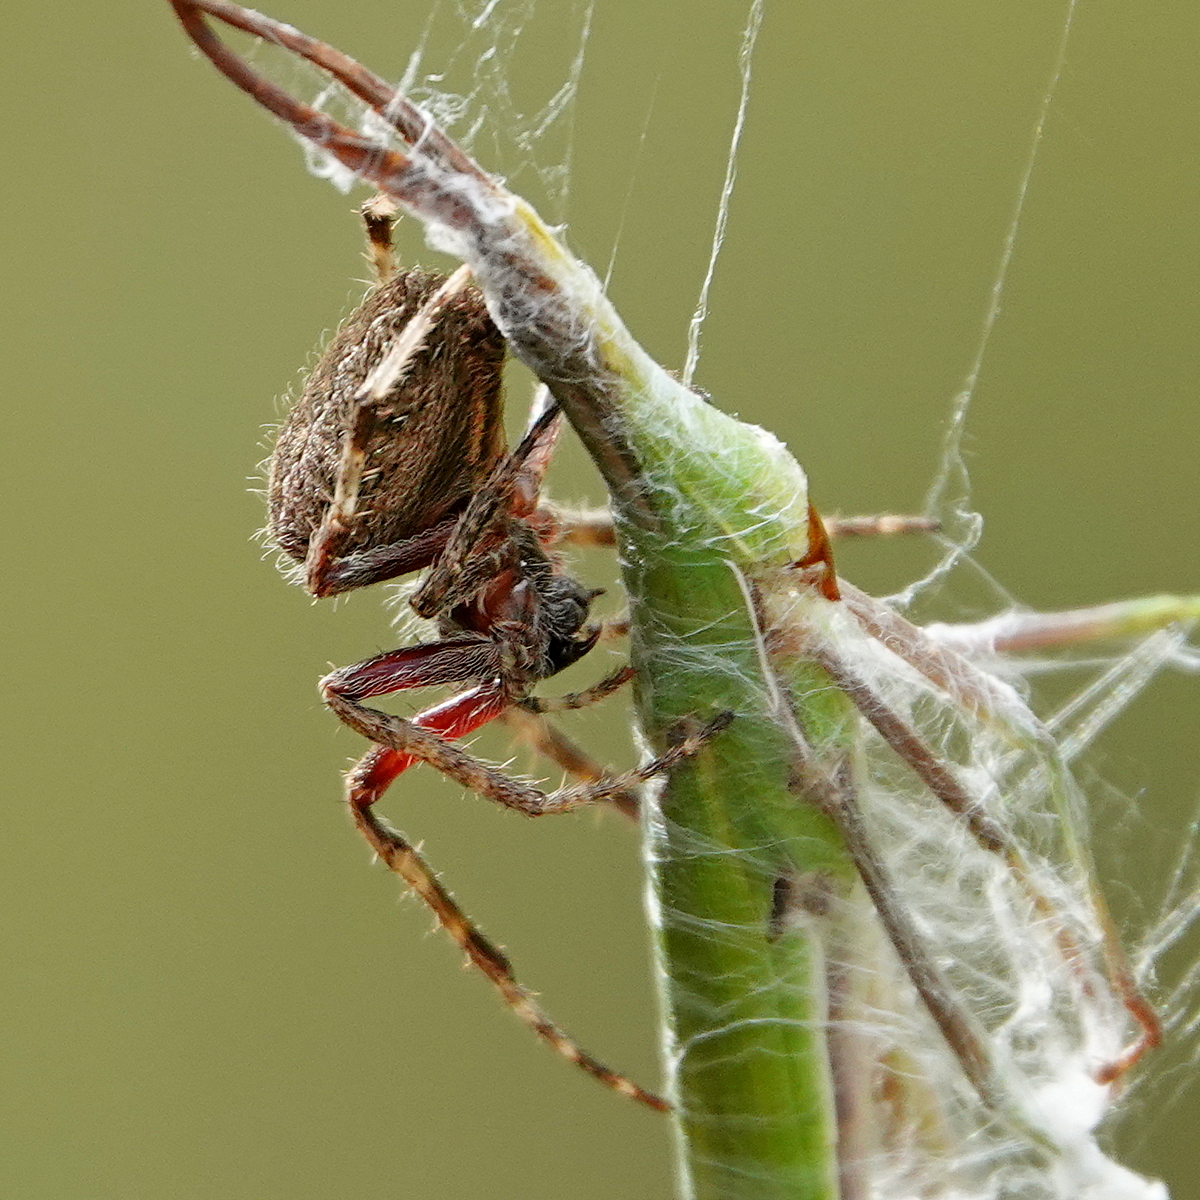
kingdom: Animalia
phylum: Arthropoda
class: Arachnida
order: Araneae
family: Araneidae
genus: Hortophora
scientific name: Hortophora tatianeae
